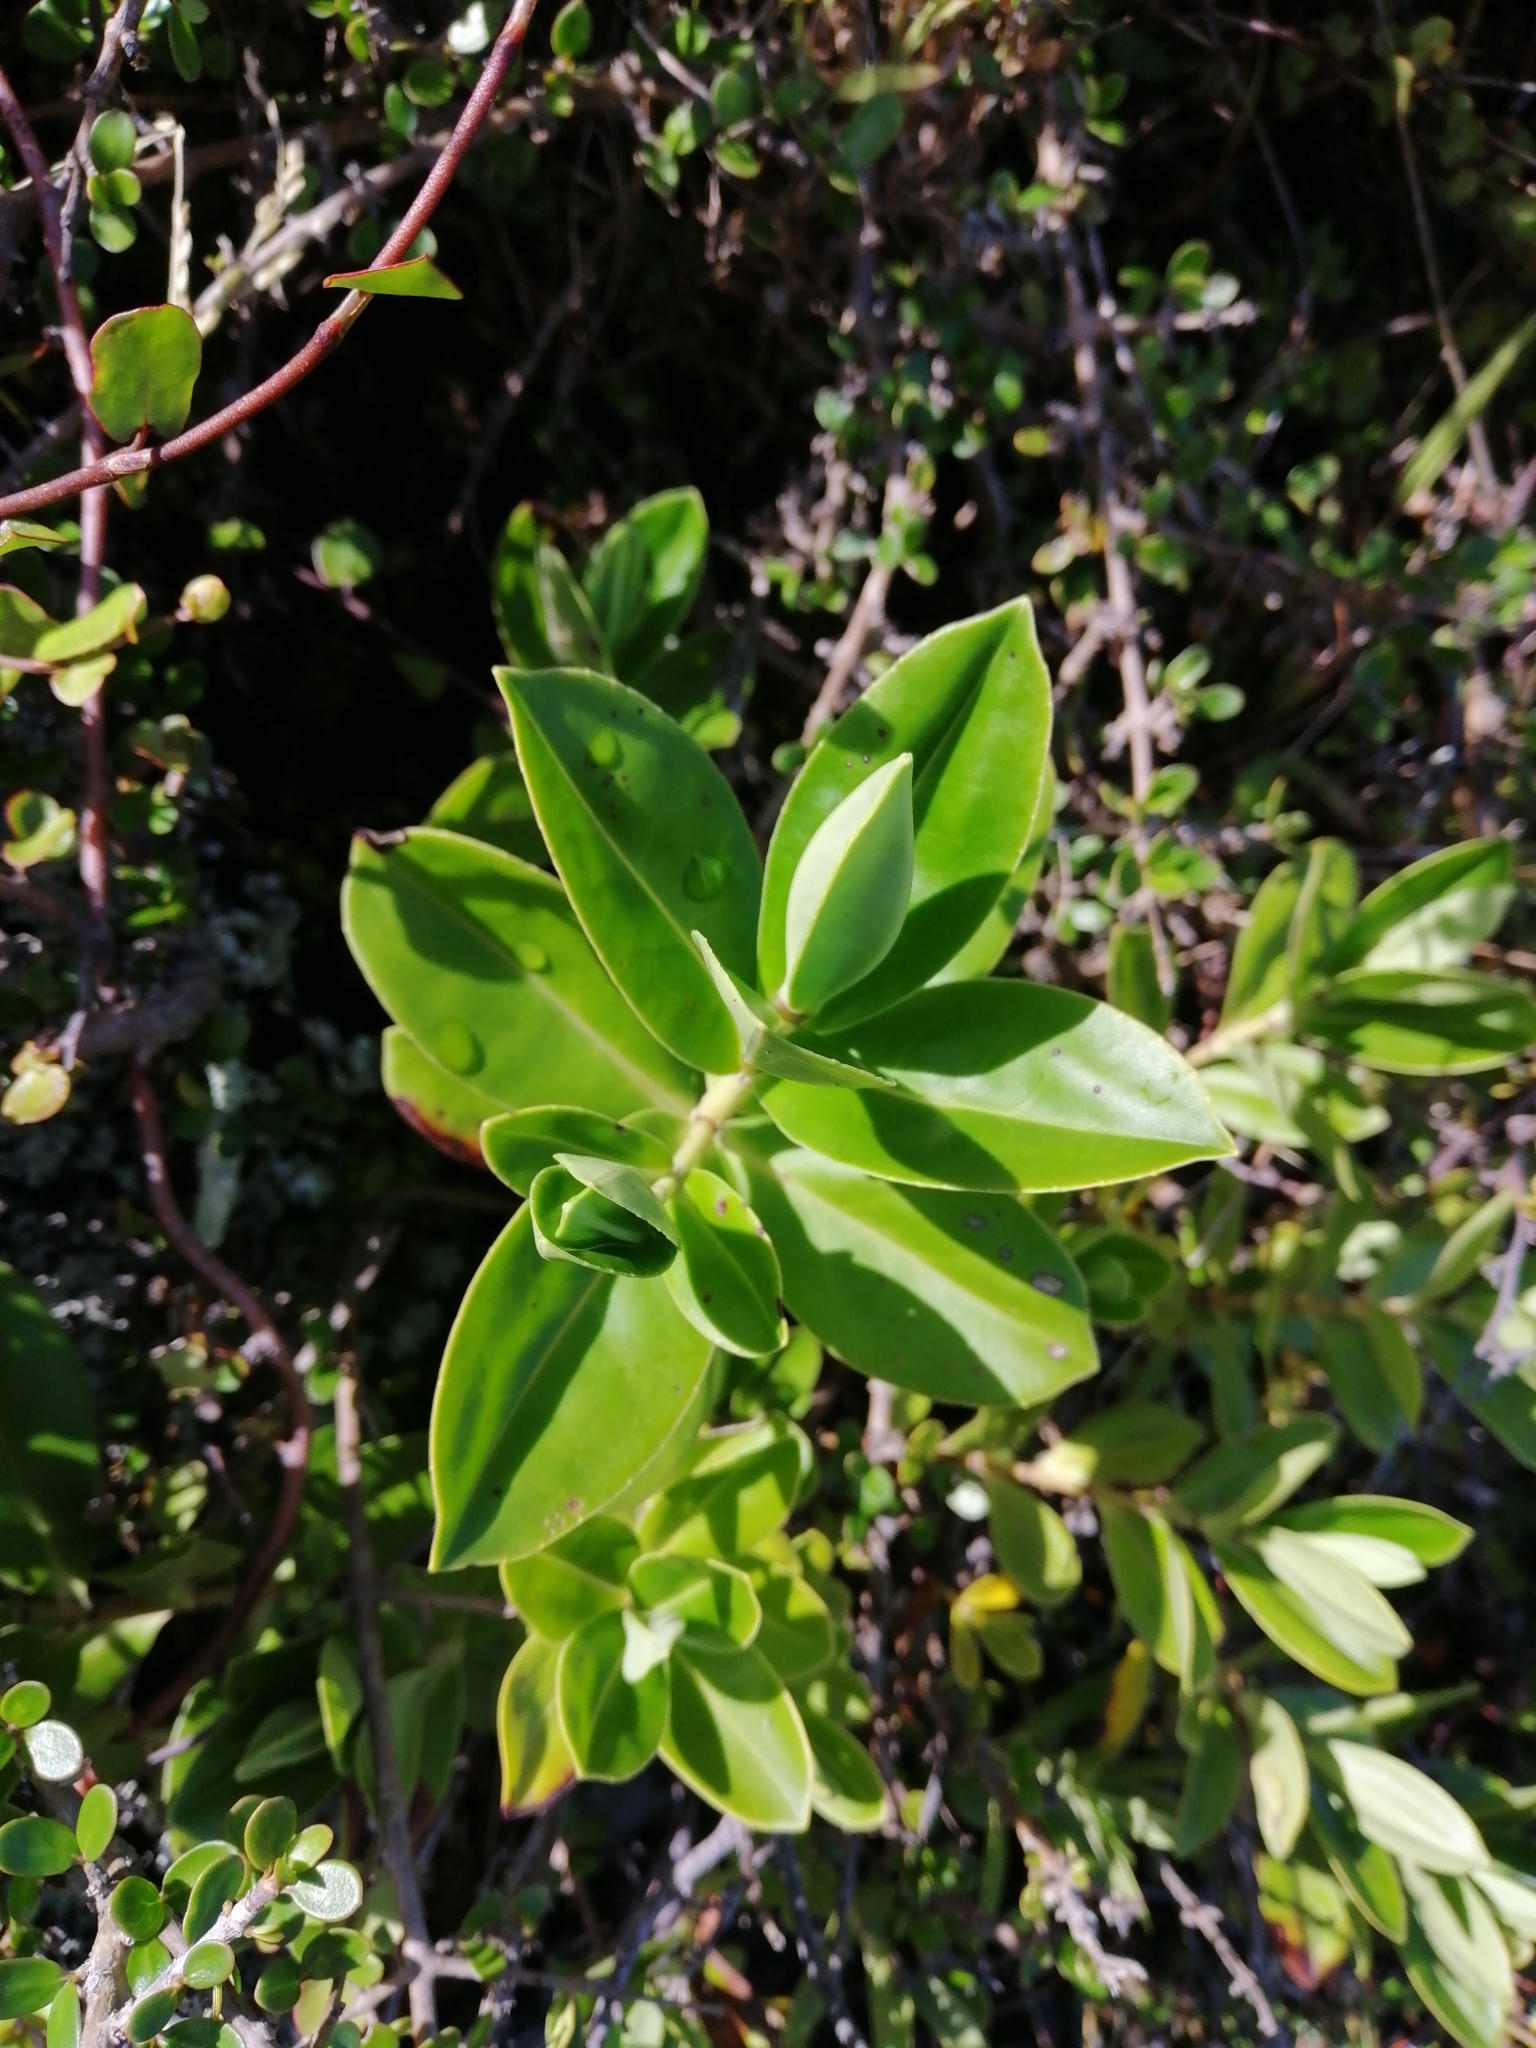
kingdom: Plantae
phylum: Tracheophyta
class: Magnoliopsida
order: Lamiales
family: Plantaginaceae
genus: Veronica
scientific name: Veronica stricta
